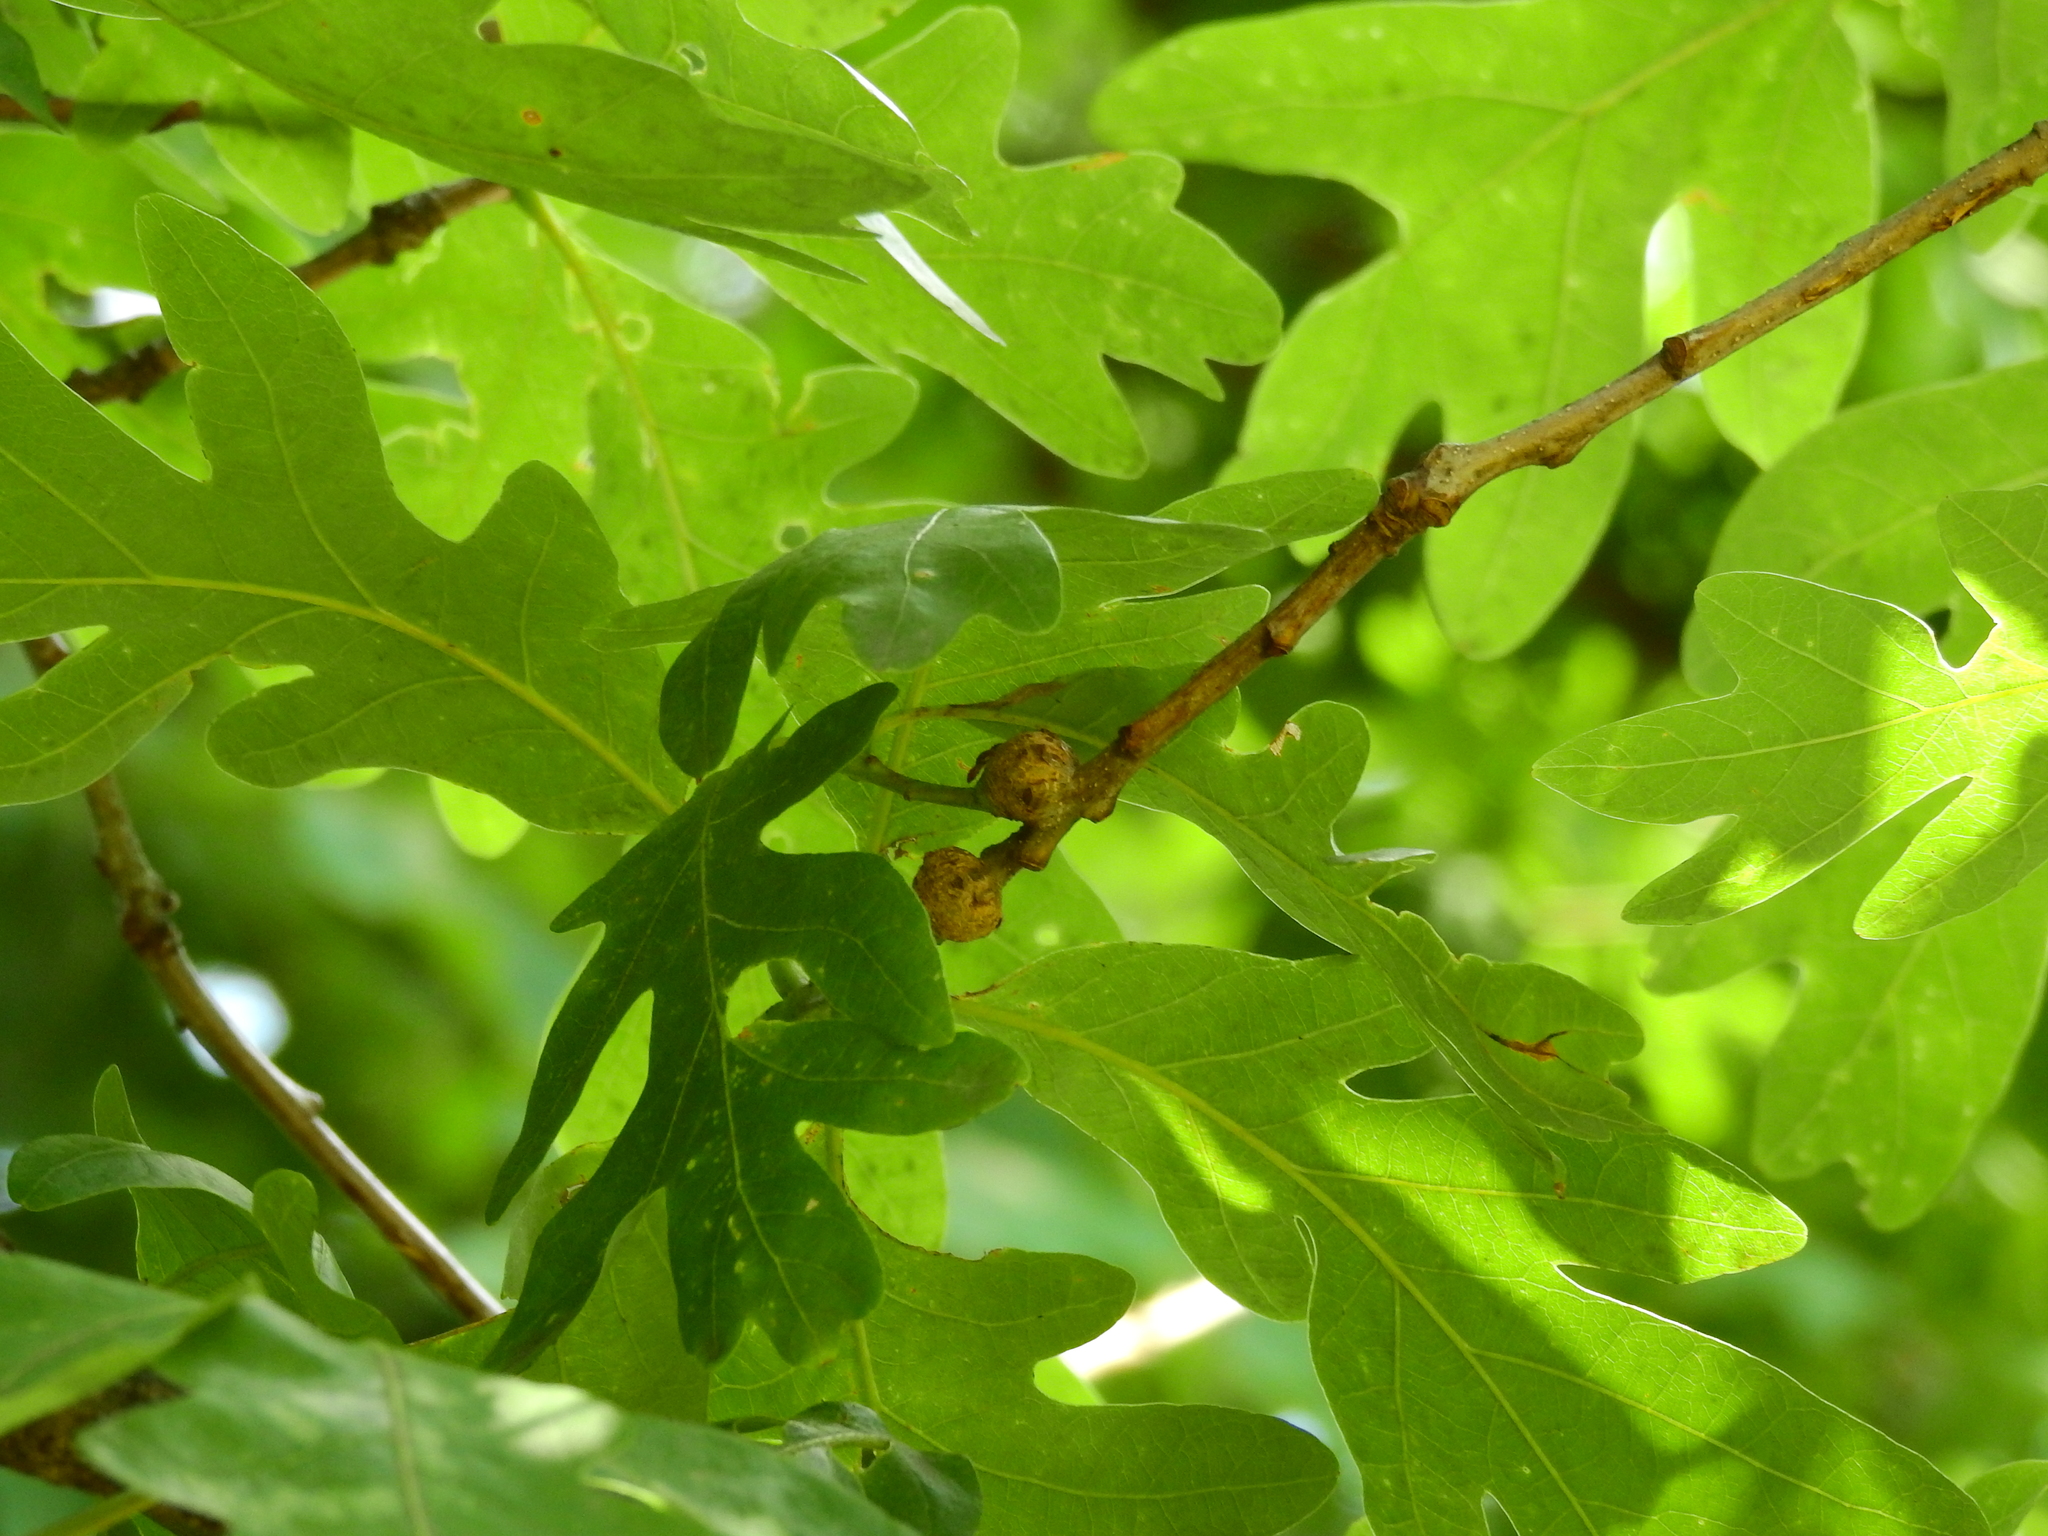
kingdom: Animalia
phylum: Arthropoda
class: Insecta
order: Hymenoptera
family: Cynipidae
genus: Loxaulus
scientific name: Loxaulus
